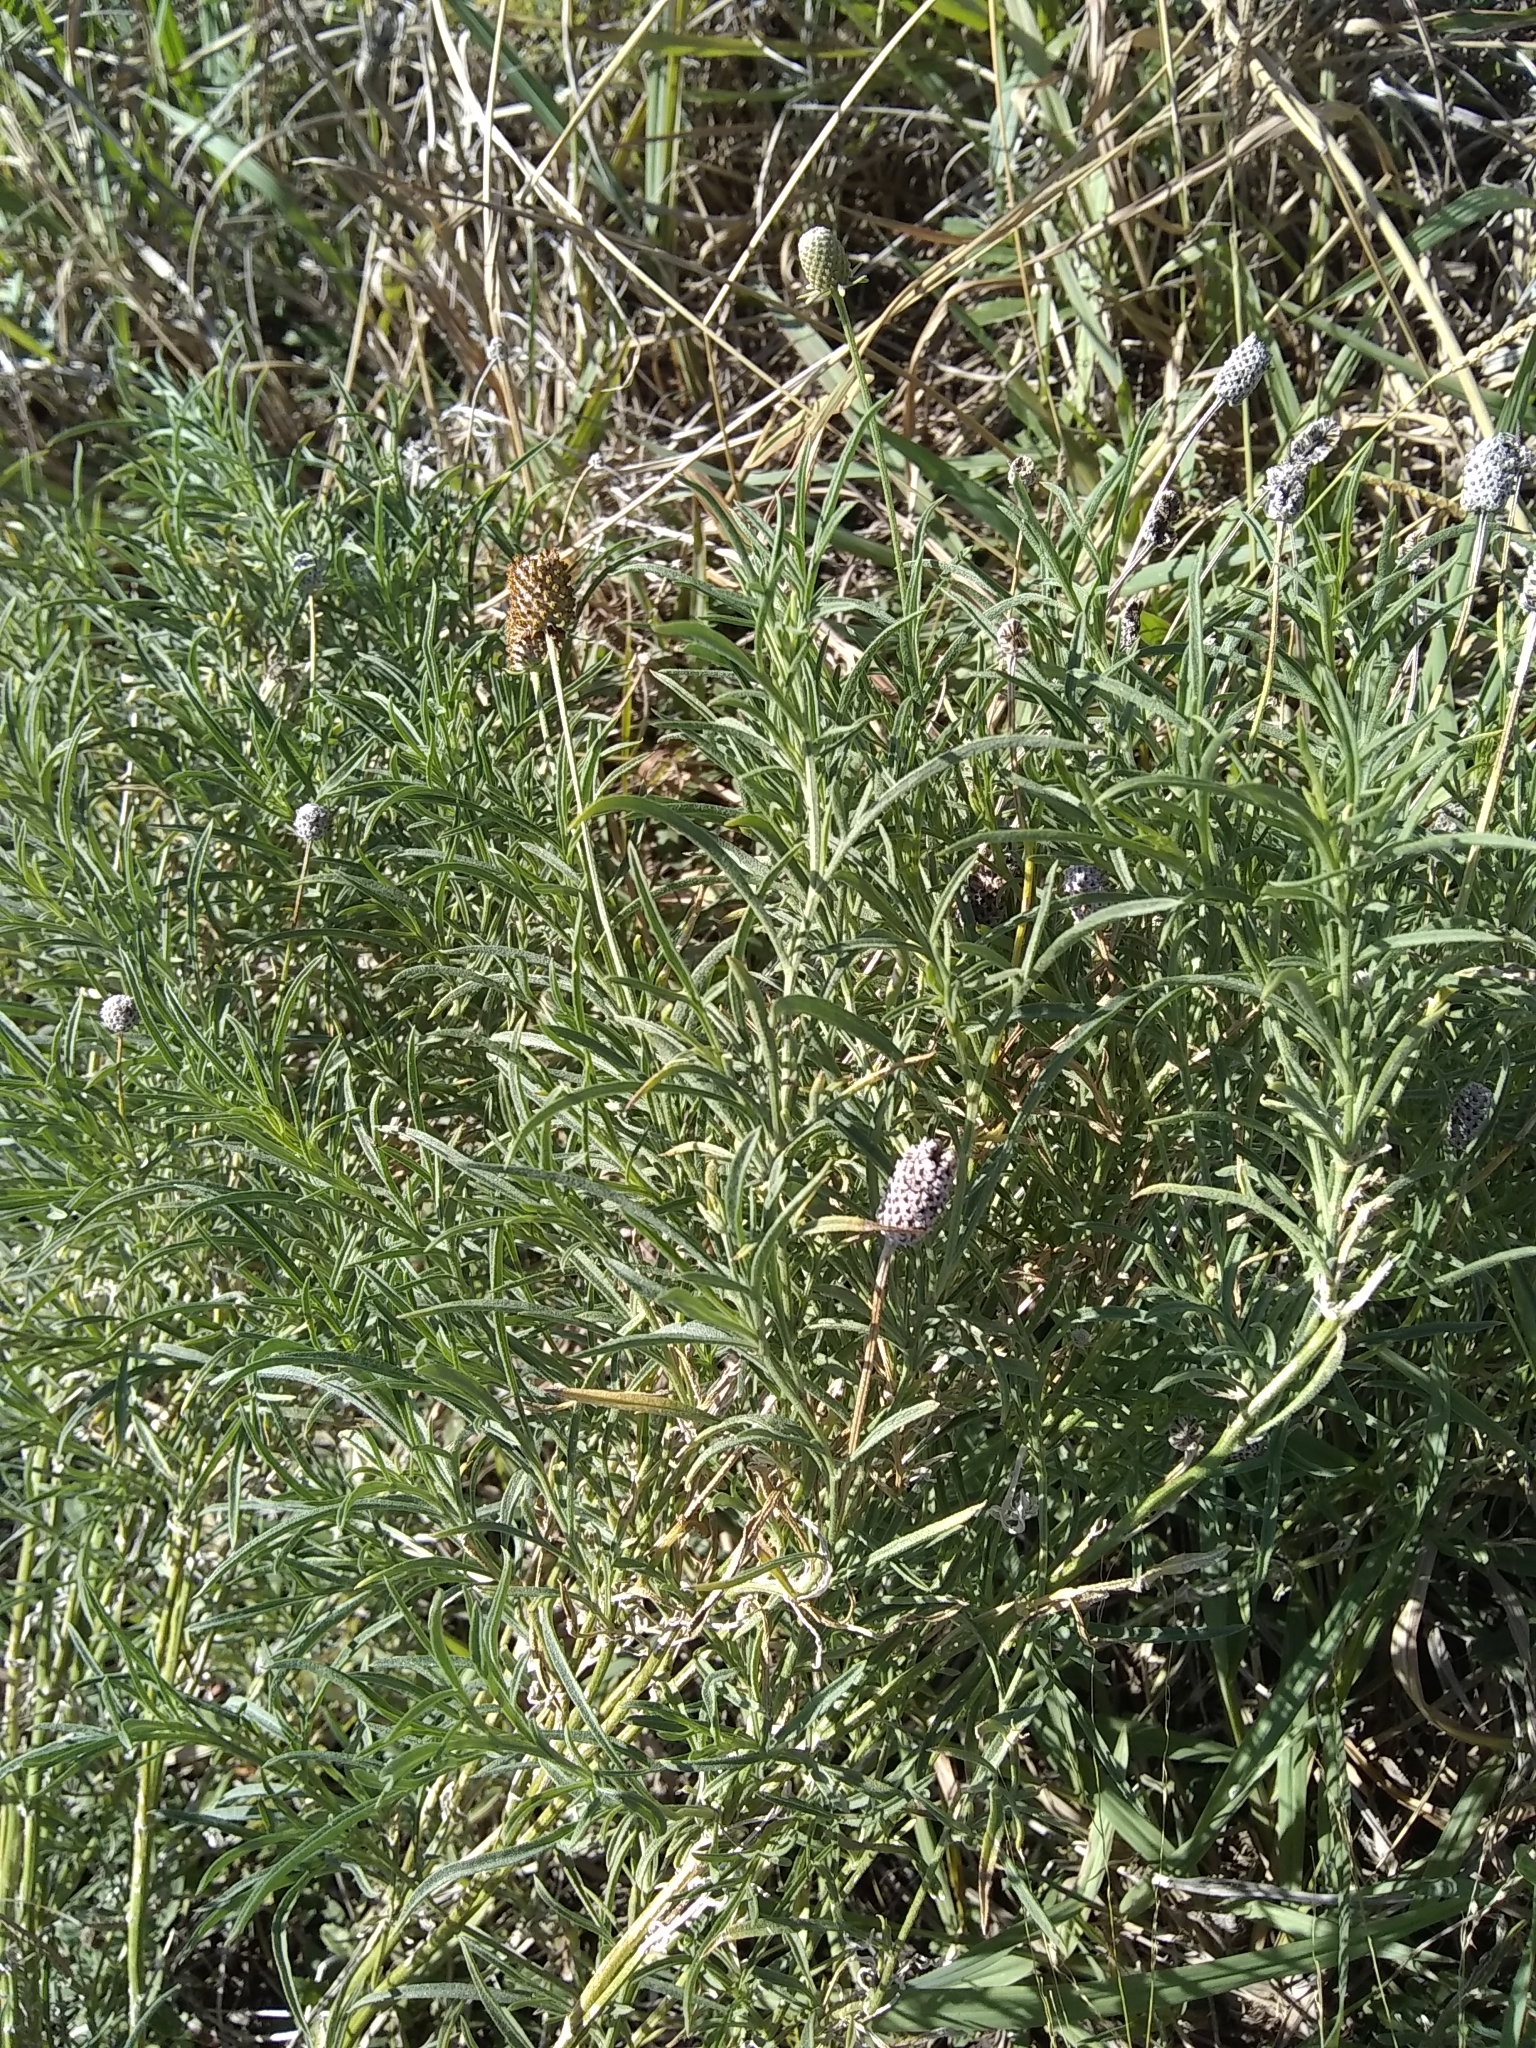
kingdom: Plantae
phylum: Tracheophyta
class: Magnoliopsida
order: Asterales
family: Asteraceae
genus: Ratibida
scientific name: Ratibida columnifera
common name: Prairie coneflower
